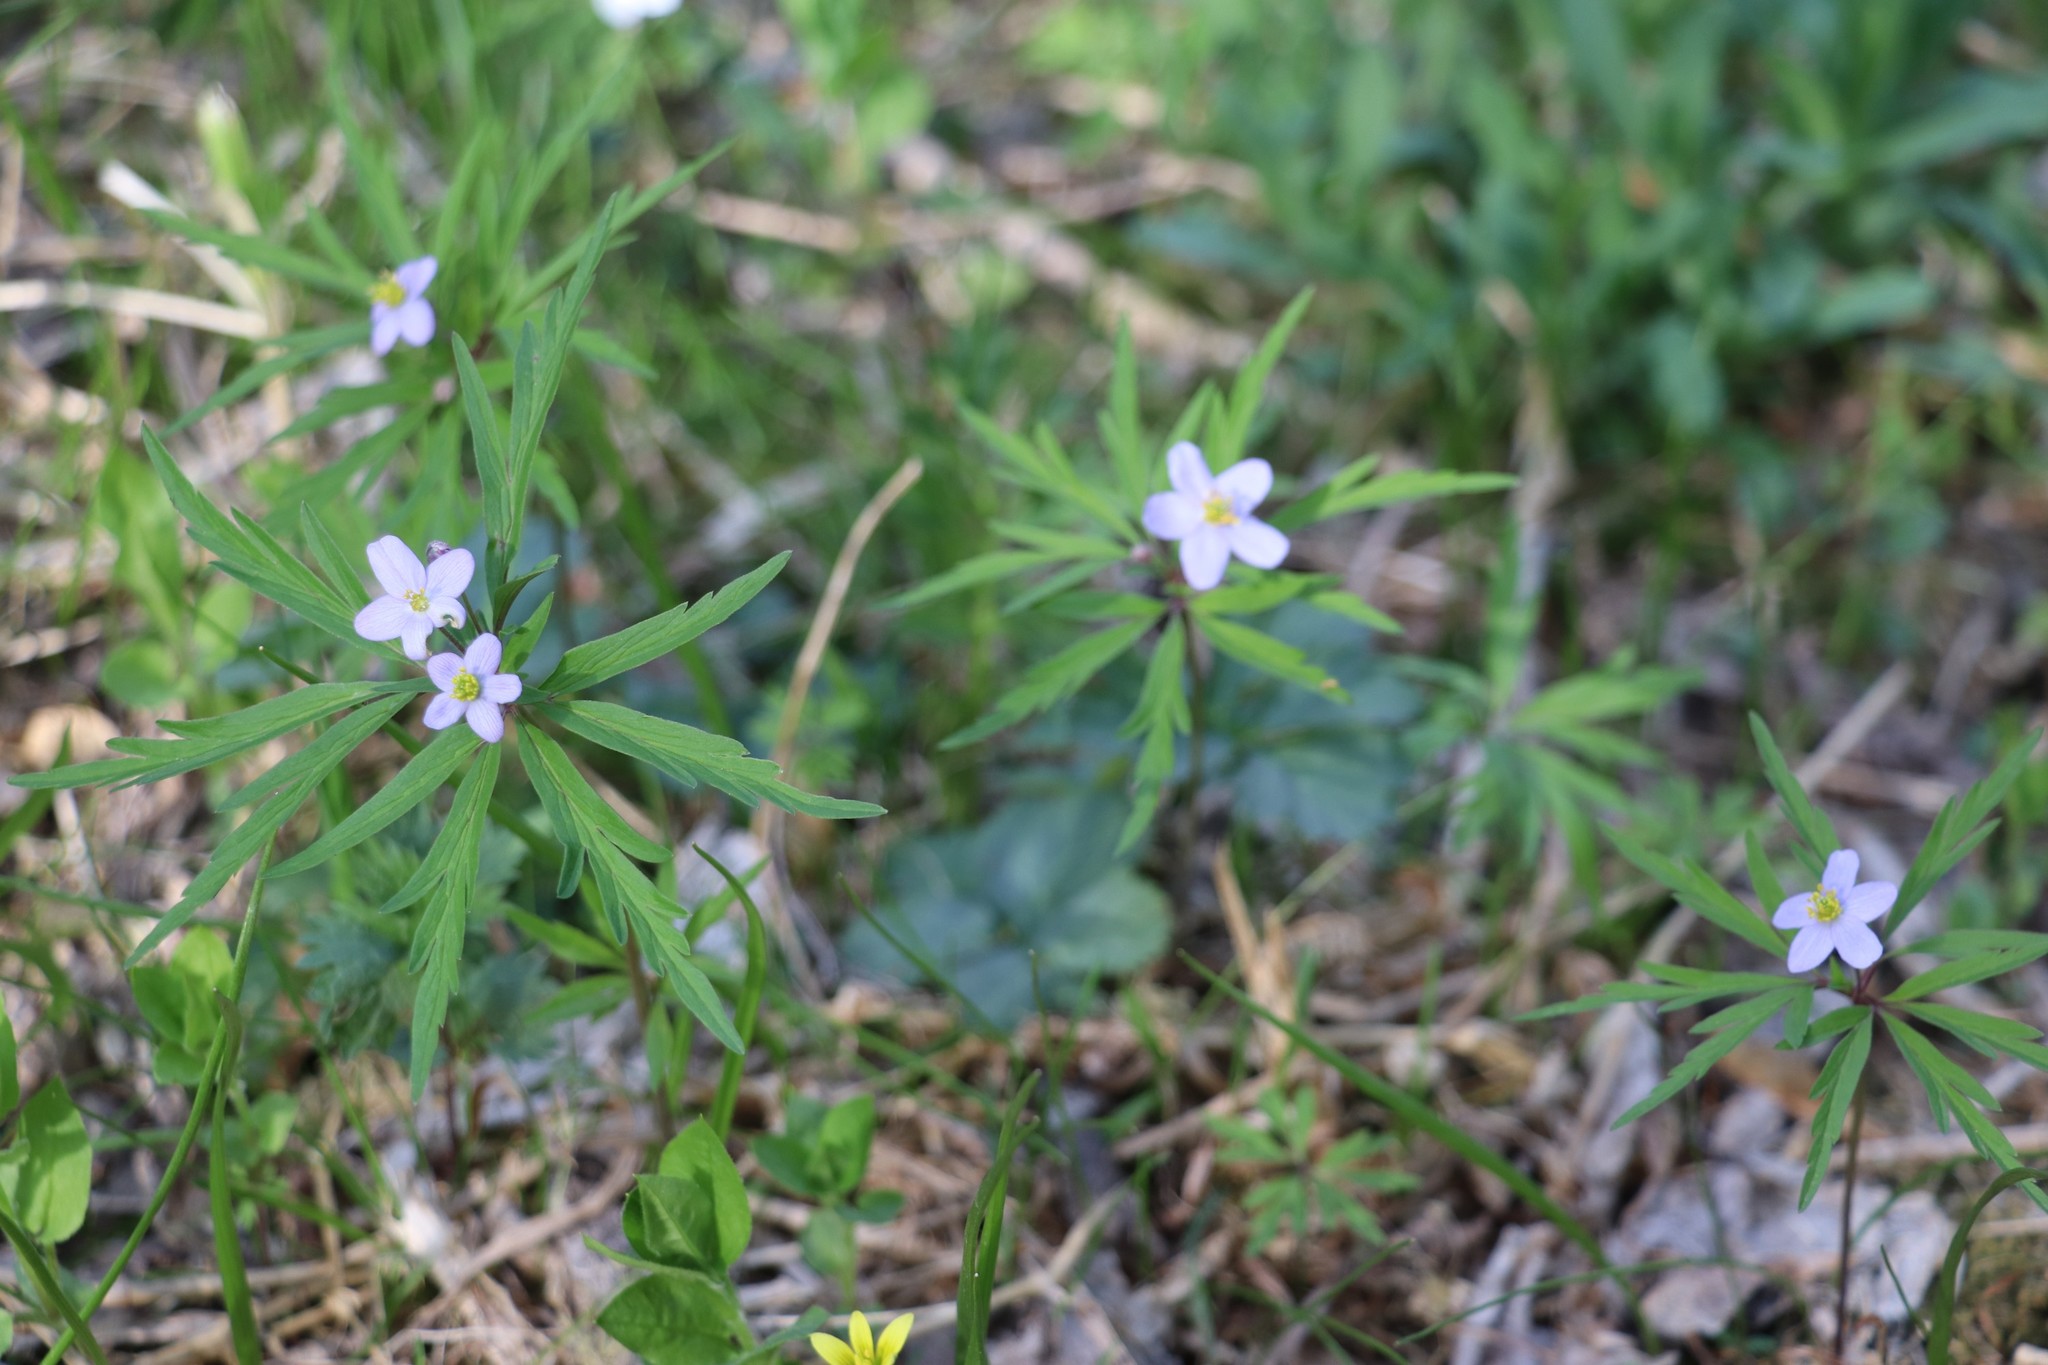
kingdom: Plantae
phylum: Tracheophyta
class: Magnoliopsida
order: Ranunculales
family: Ranunculaceae
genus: Anemone
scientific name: Anemone caerulea
